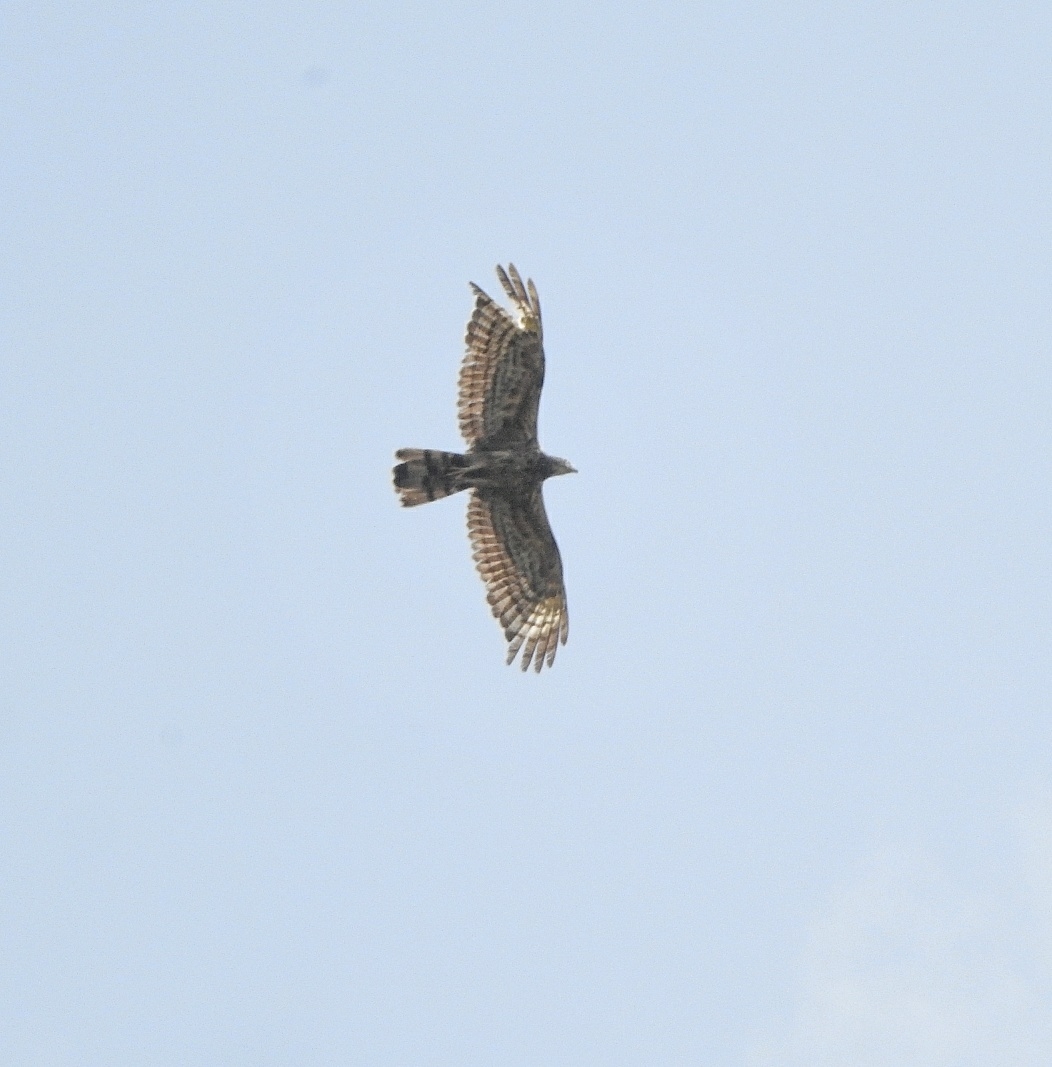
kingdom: Animalia
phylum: Chordata
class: Aves
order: Accipitriformes
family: Accipitridae
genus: Pernis
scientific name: Pernis ptilorhynchus
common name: Crested honey buzzard
